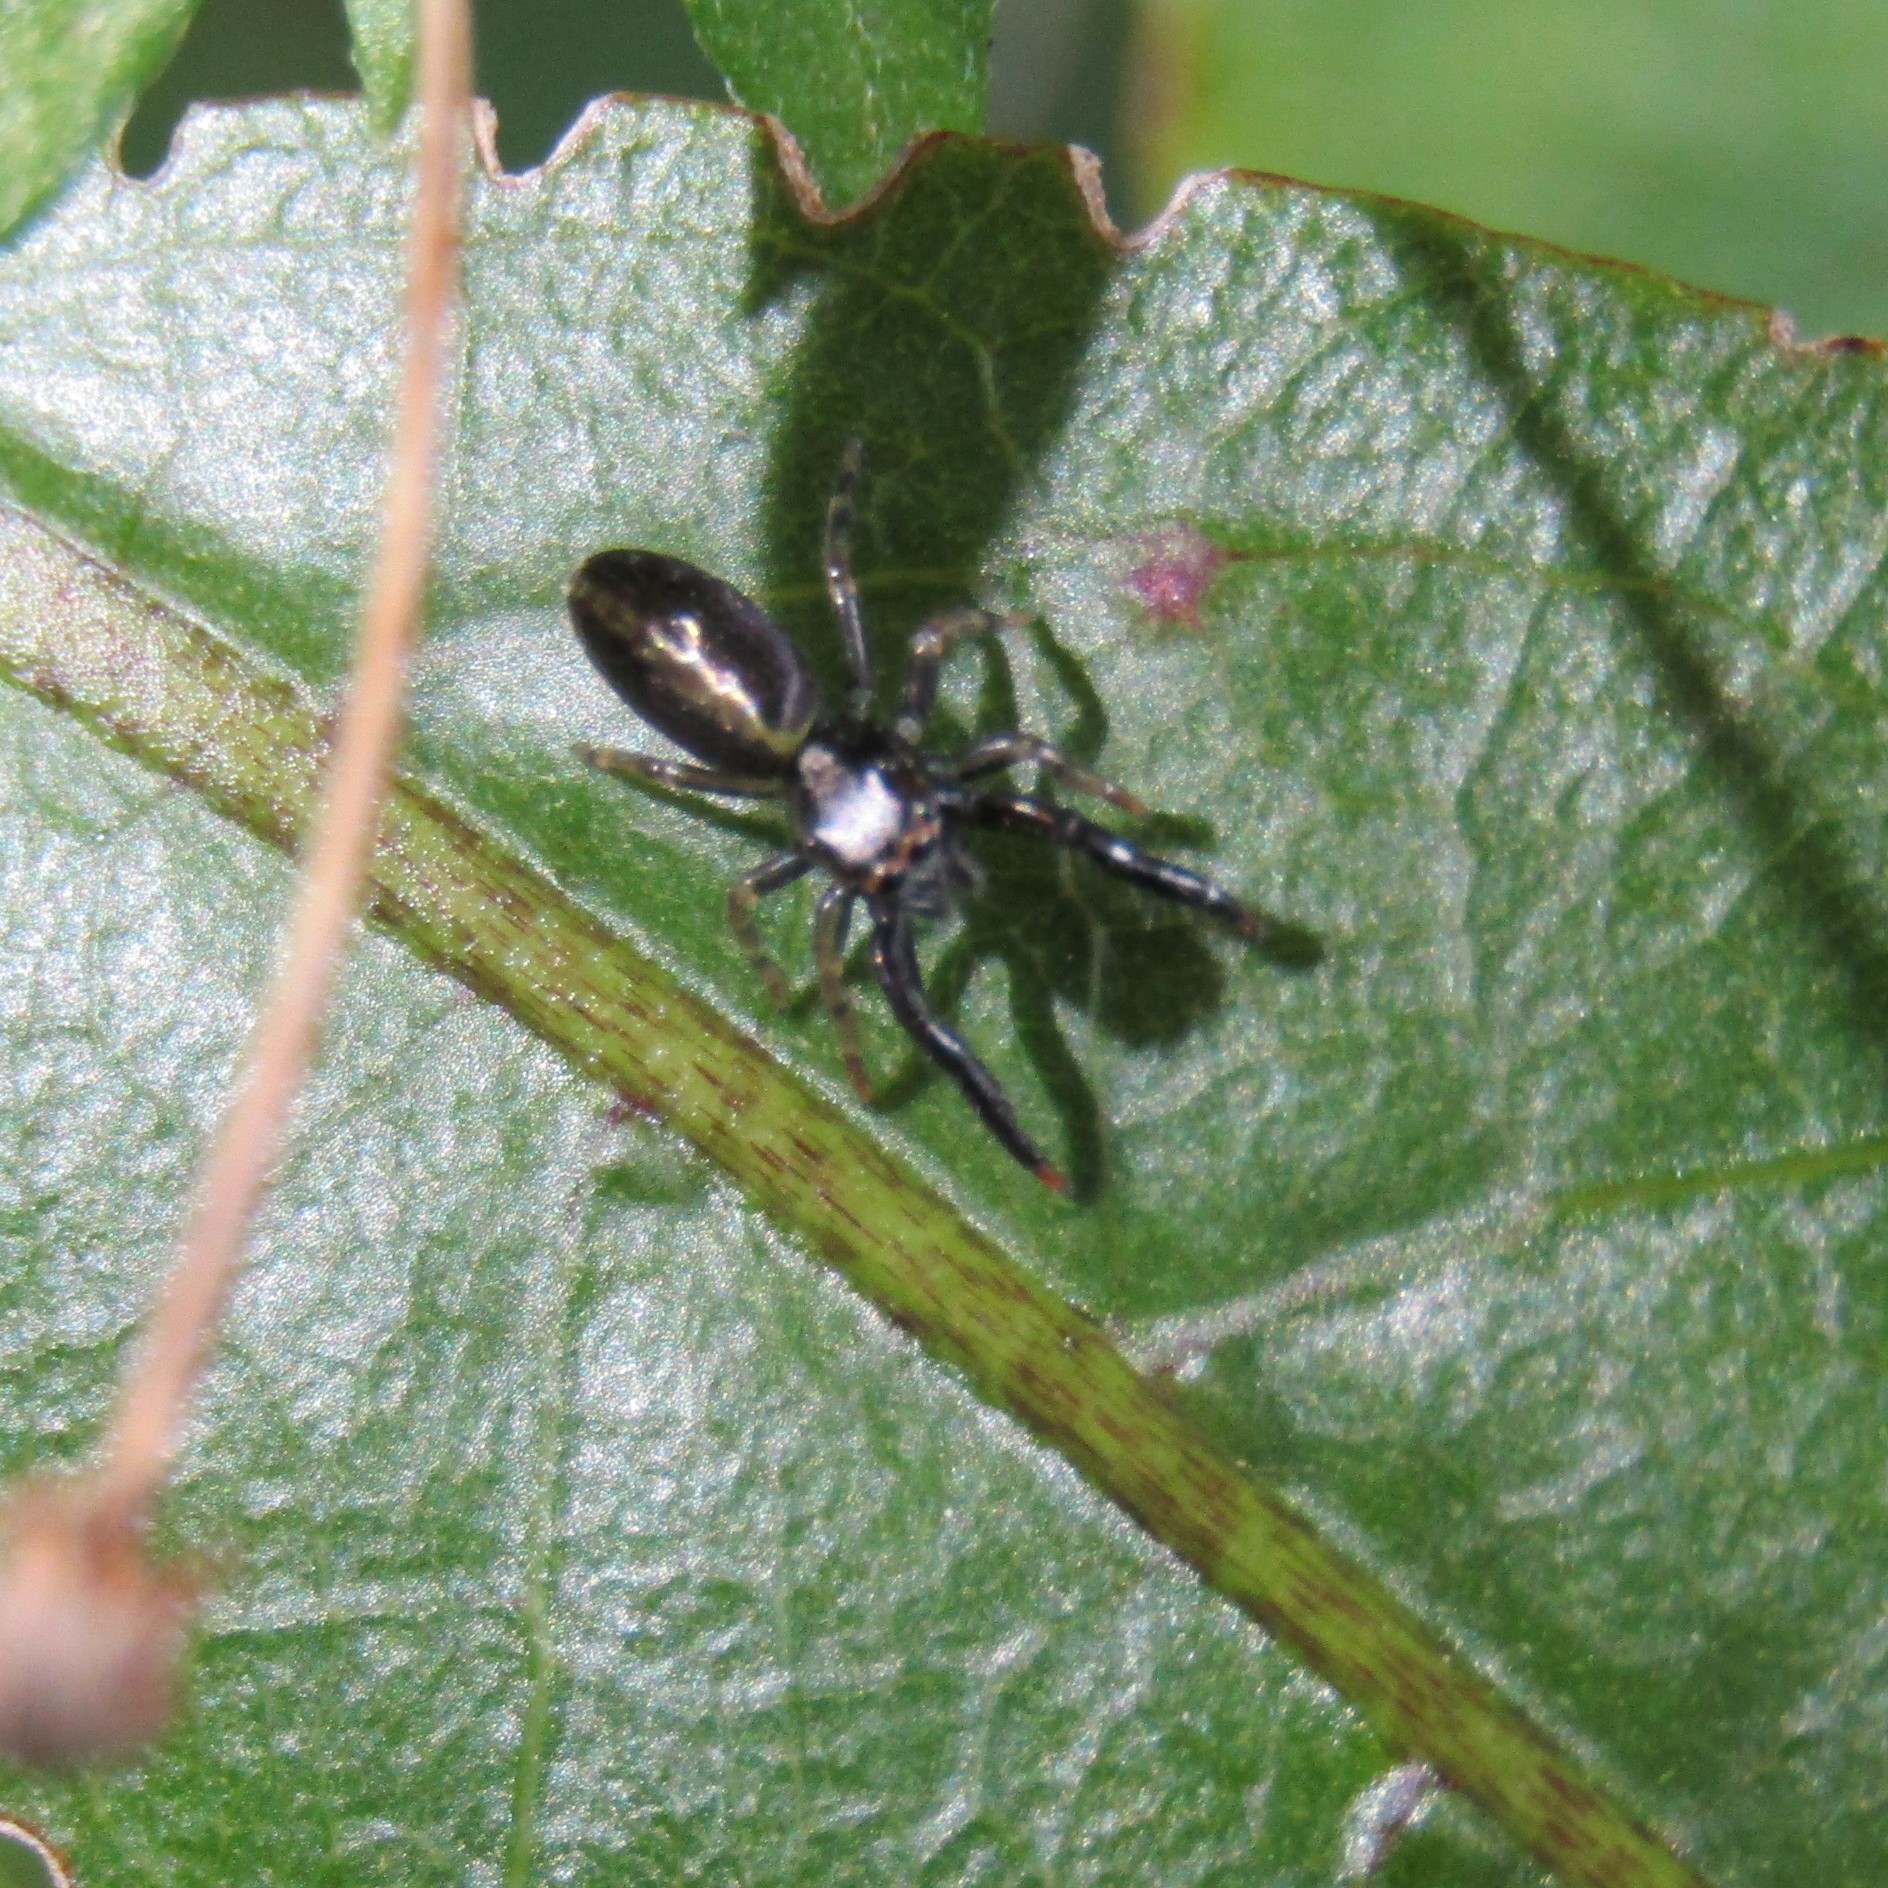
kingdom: Animalia
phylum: Arthropoda
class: Arachnida
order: Araneae
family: Salticidae
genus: Trite
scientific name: Trite planiceps
